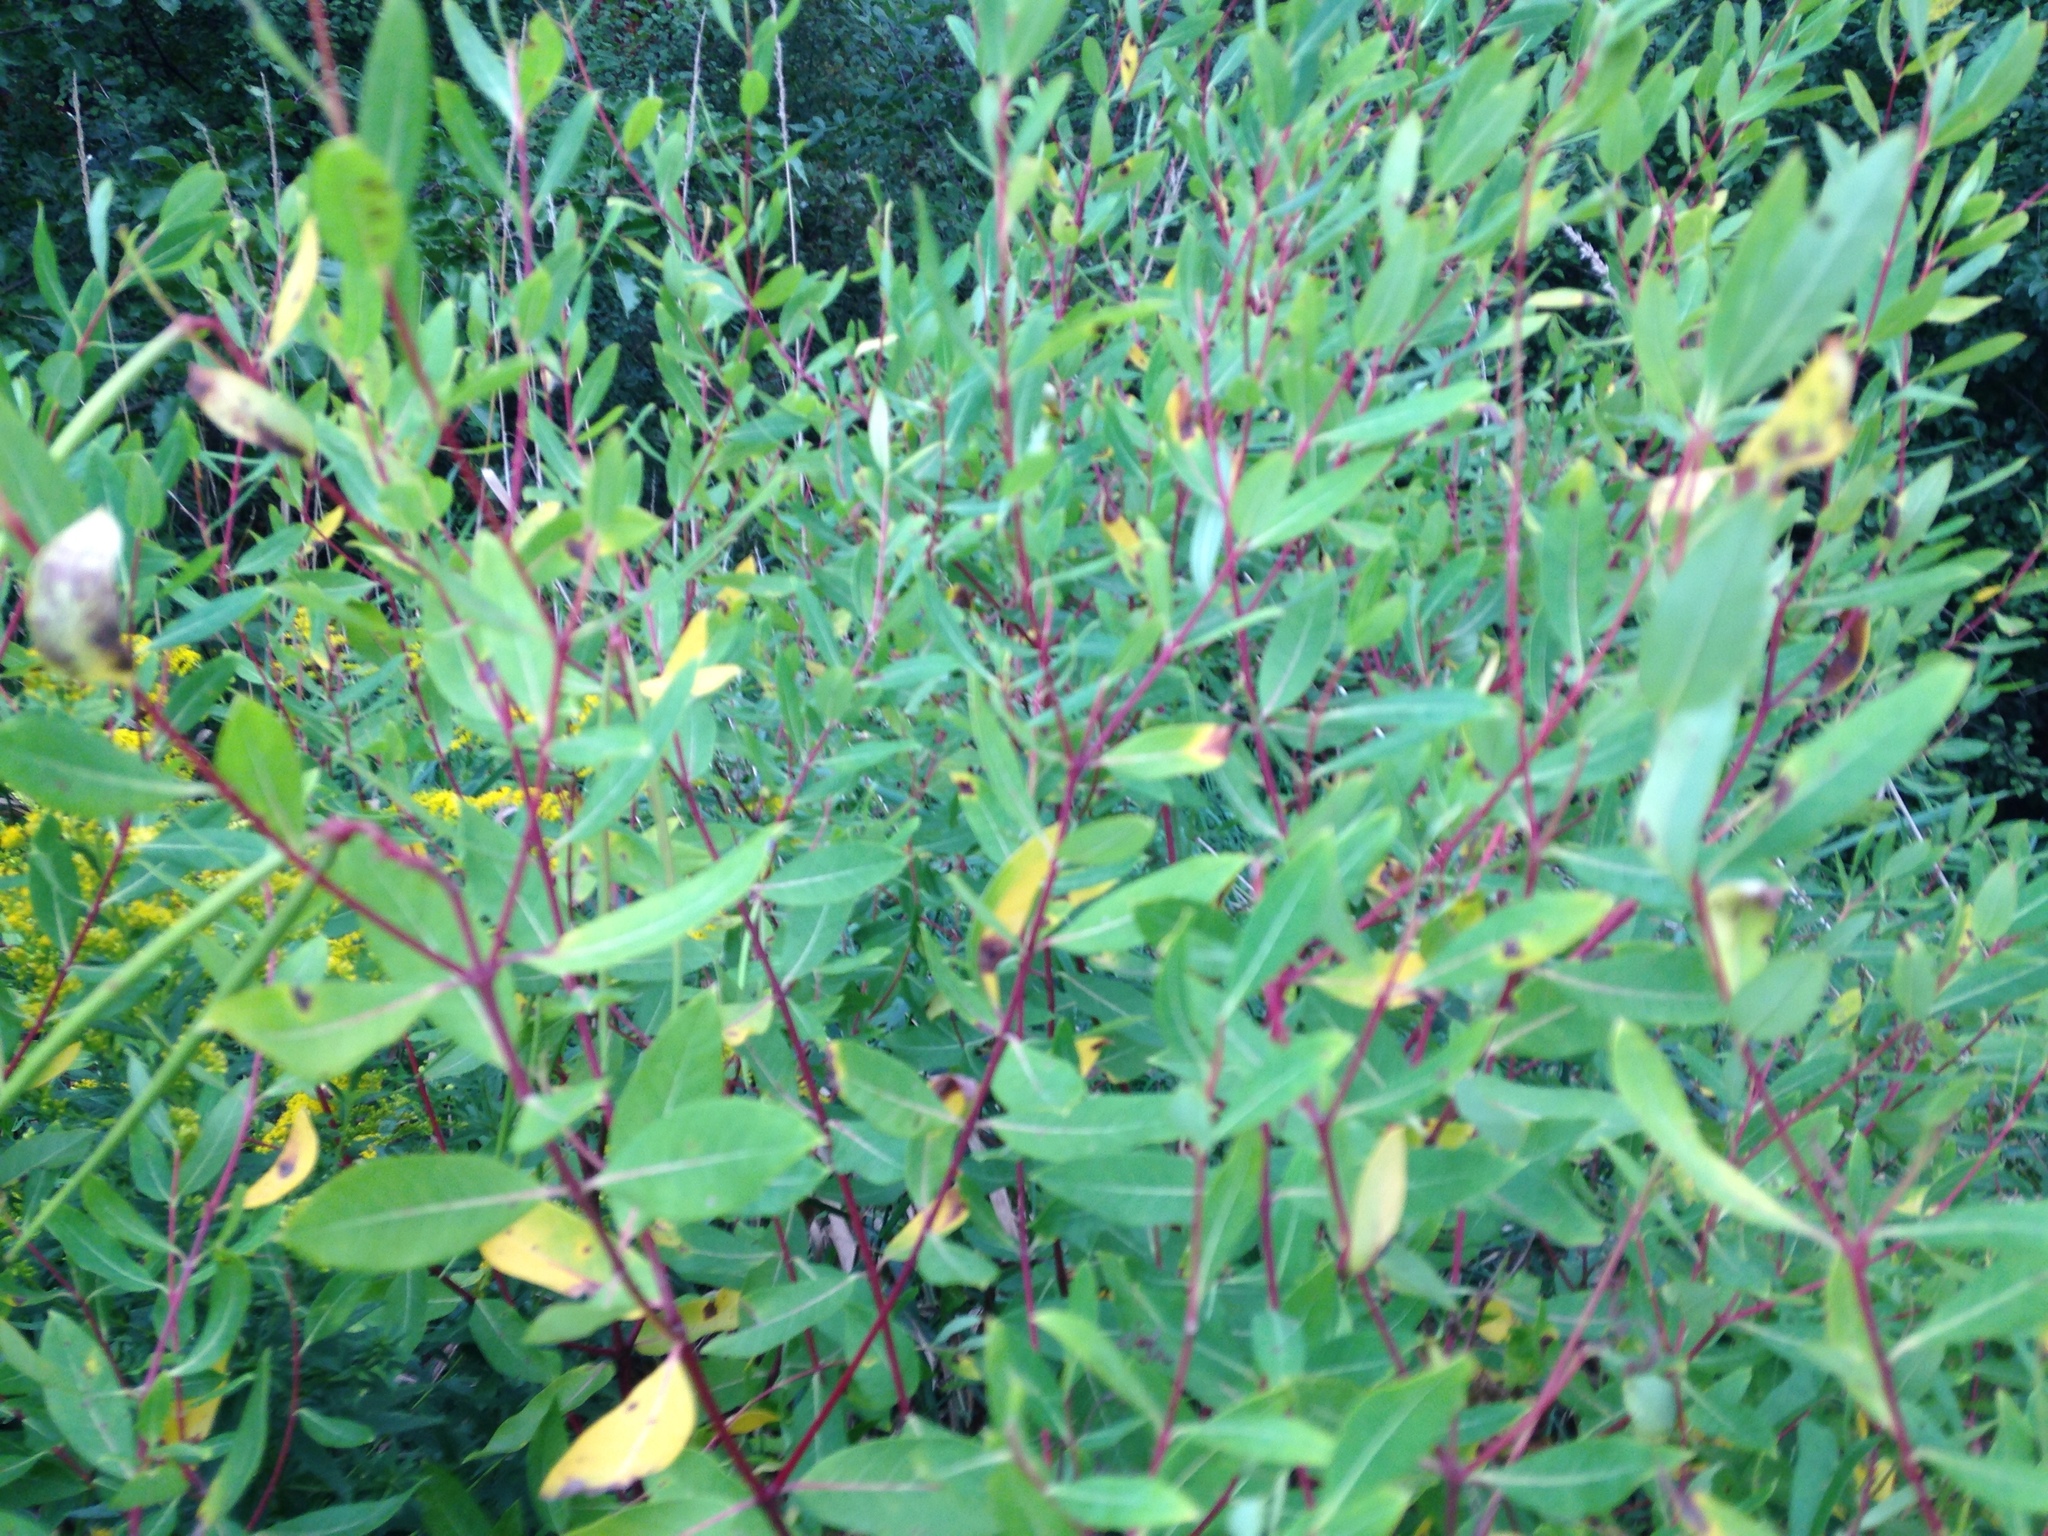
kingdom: Plantae
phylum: Tracheophyta
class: Magnoliopsida
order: Gentianales
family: Apocynaceae
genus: Apocynum
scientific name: Apocynum cannabinum
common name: Hemp dogbane
